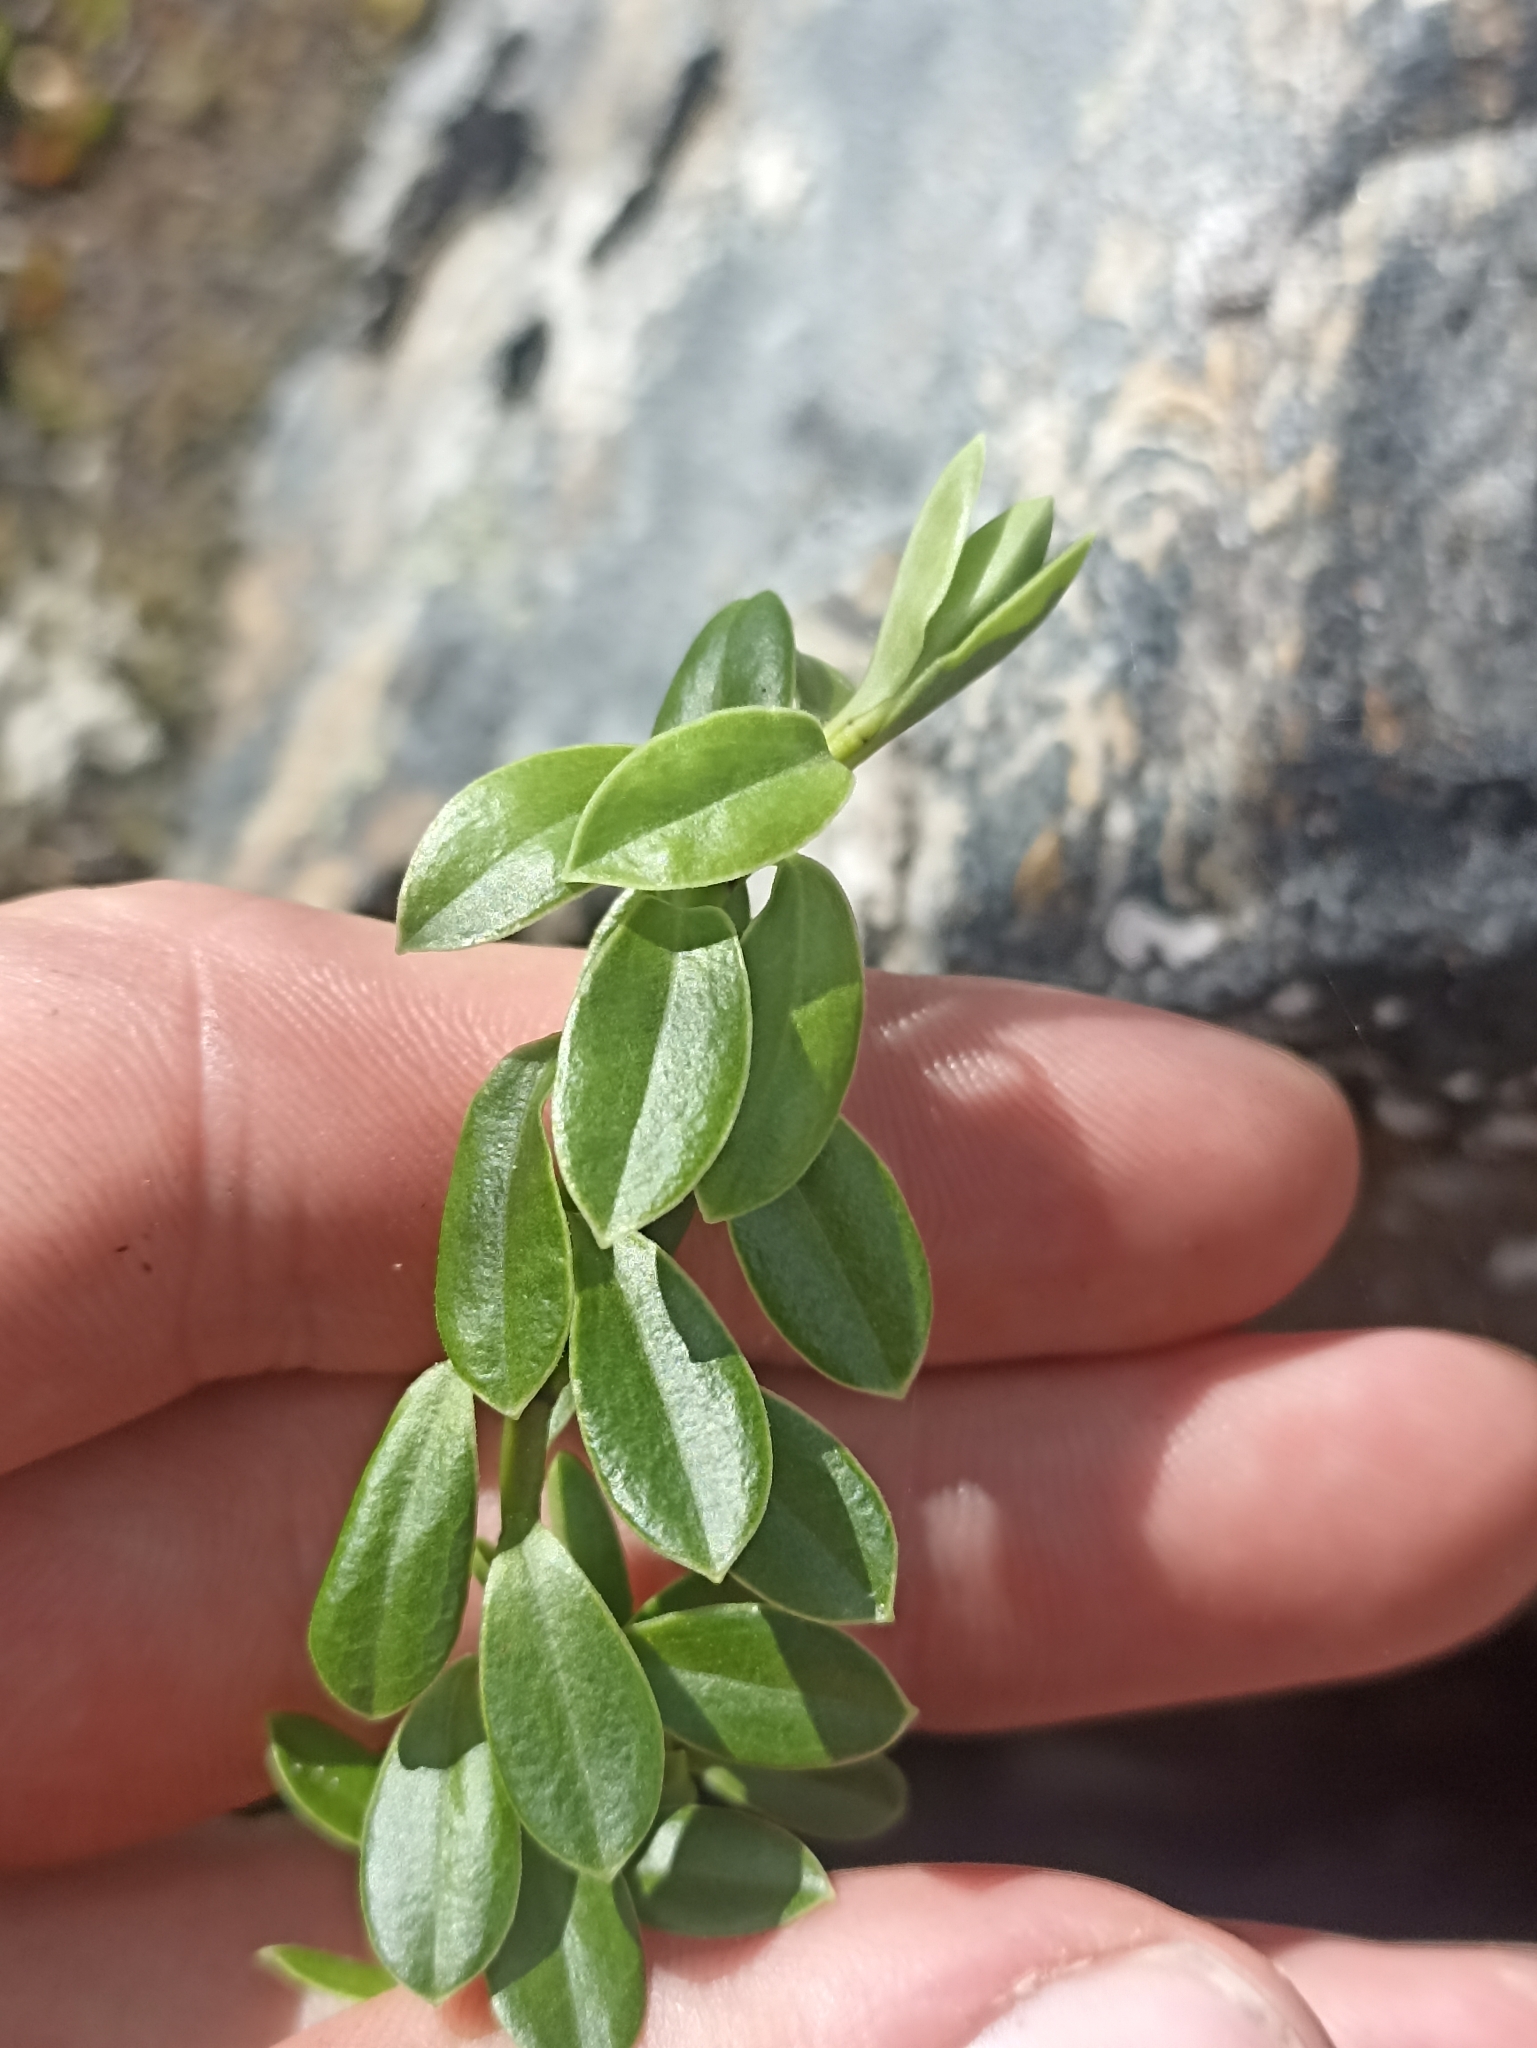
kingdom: Plantae
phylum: Tracheophyta
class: Magnoliopsida
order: Lamiales
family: Plantaginaceae
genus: Veronica
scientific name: Veronica vernicosa
